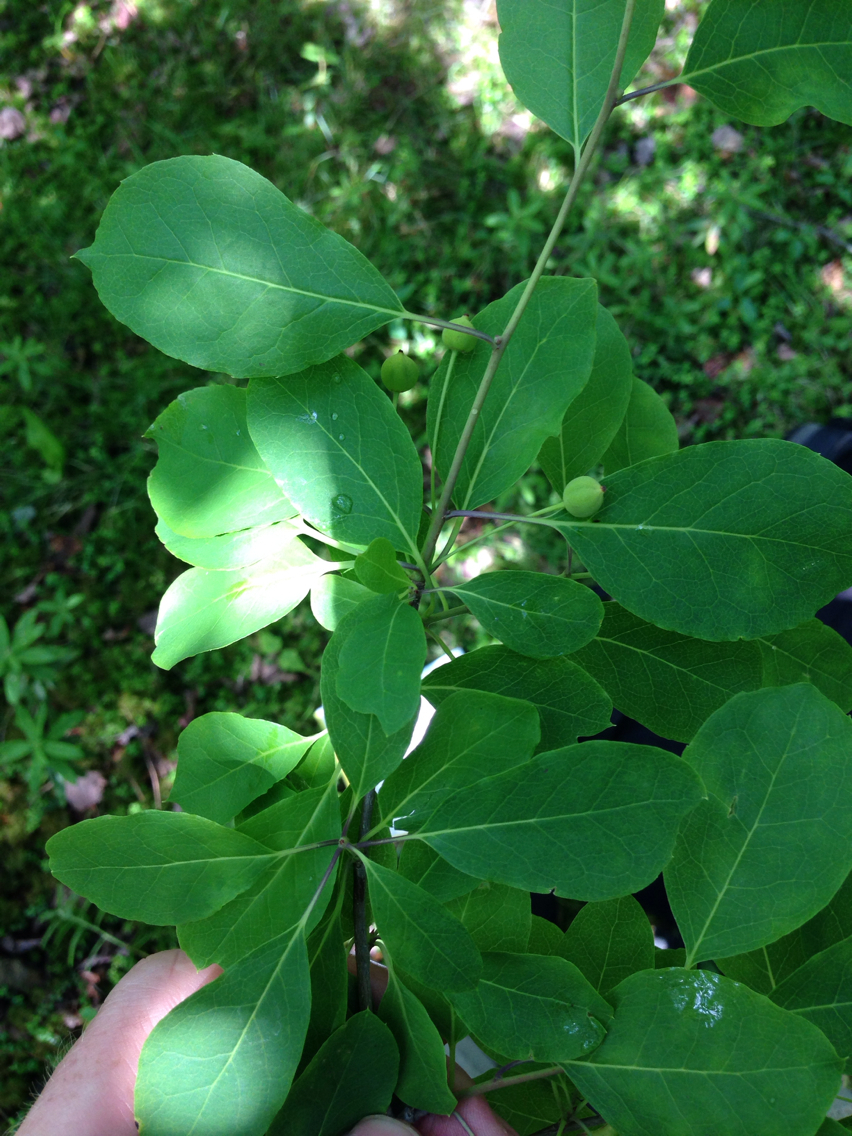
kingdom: Plantae
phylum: Tracheophyta
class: Magnoliopsida
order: Aquifoliales
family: Aquifoliaceae
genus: Ilex
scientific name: Ilex mucronata
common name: Catberry
